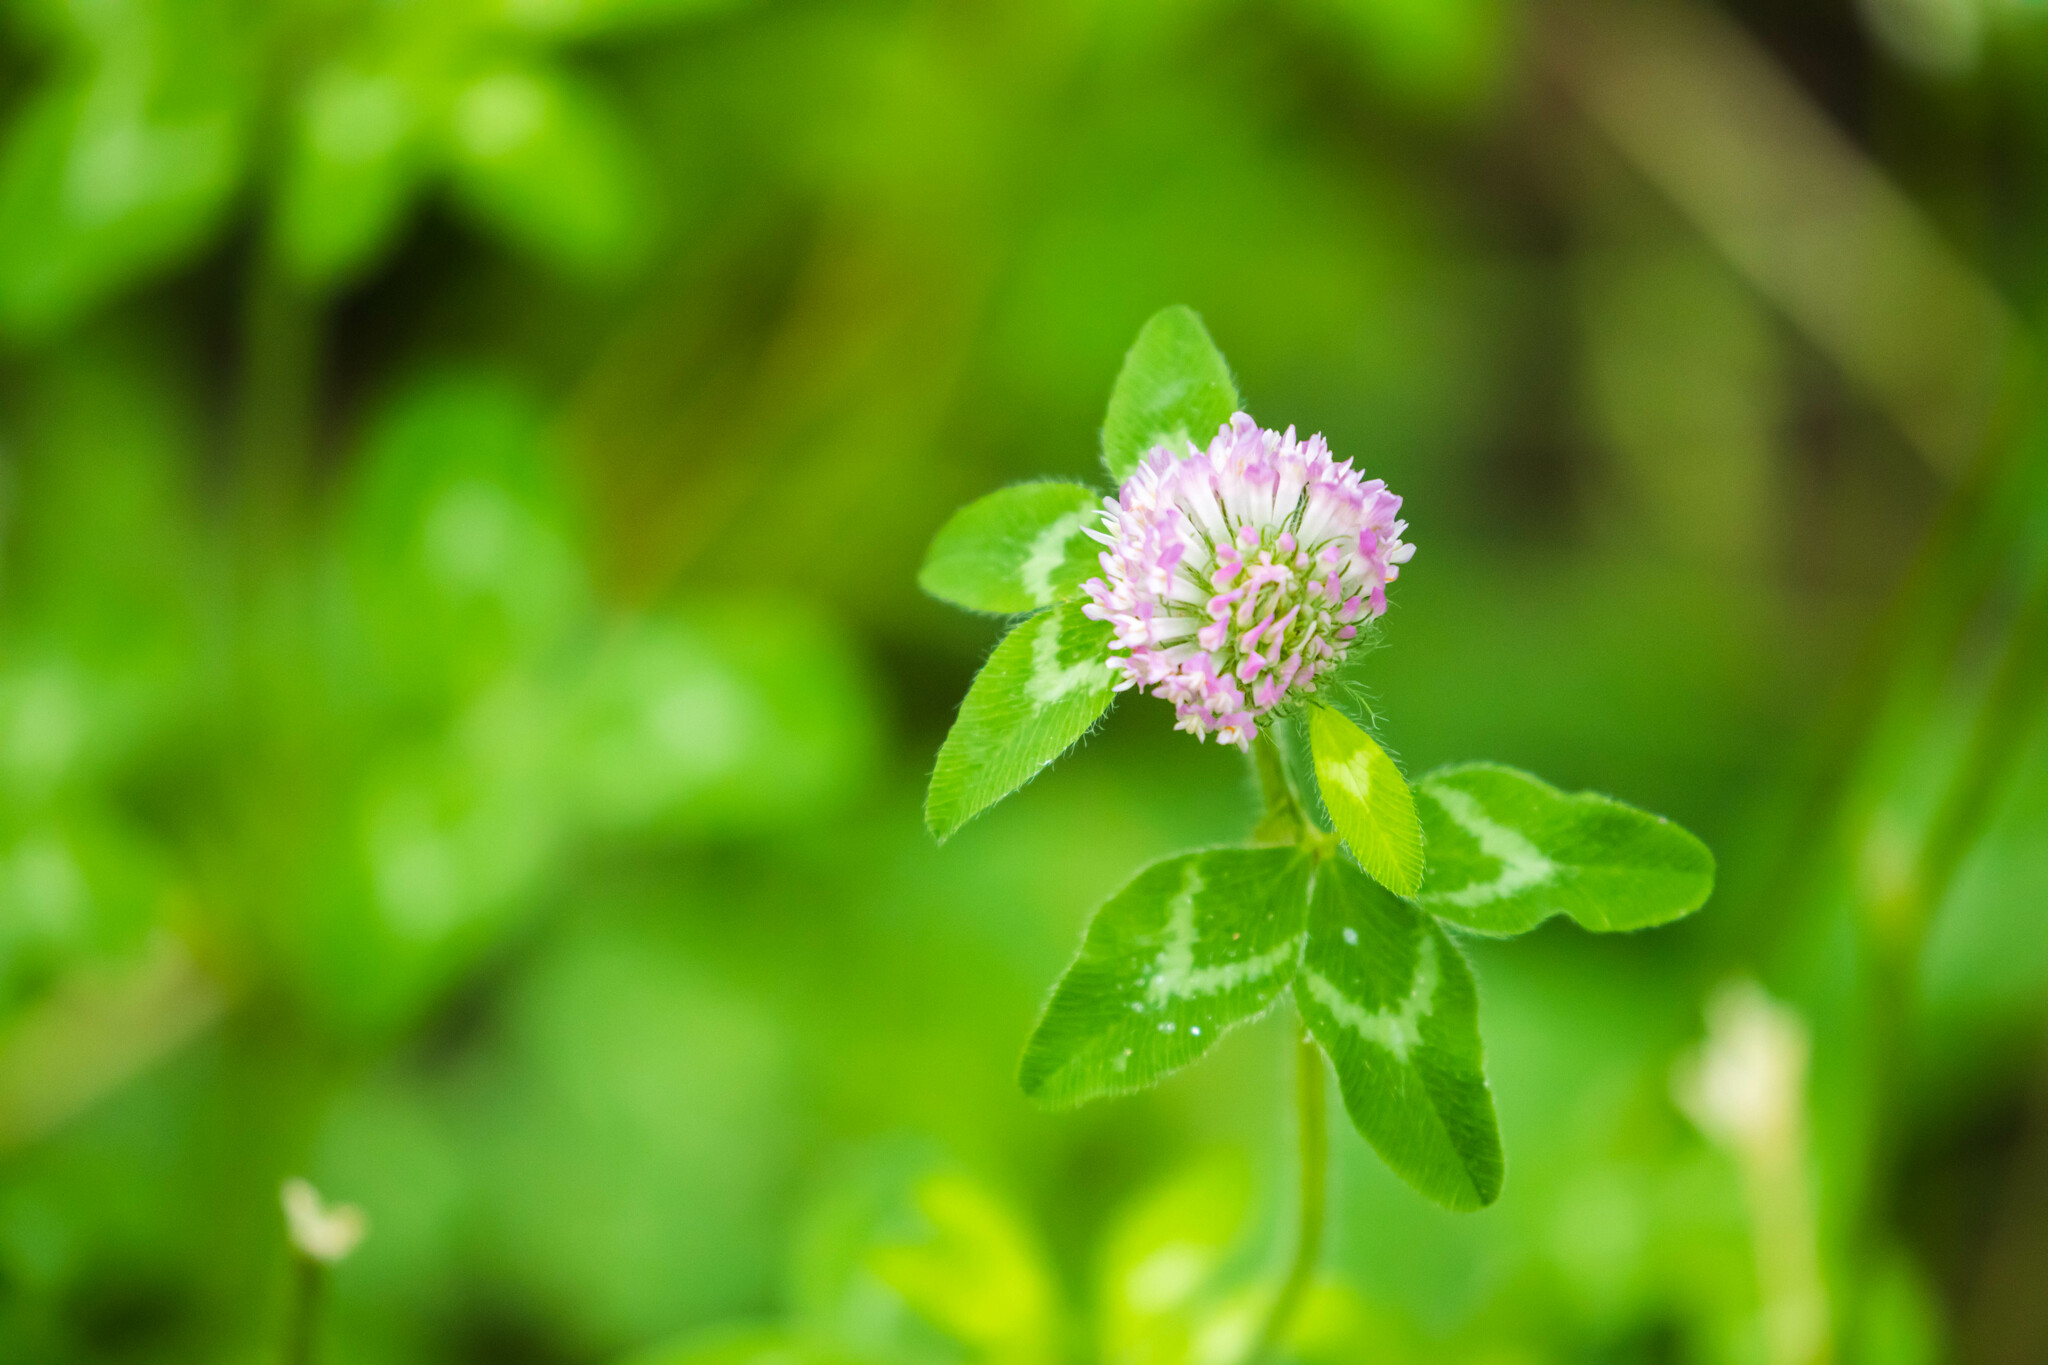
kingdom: Plantae
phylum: Tracheophyta
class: Magnoliopsida
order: Fabales
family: Fabaceae
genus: Trifolium
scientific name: Trifolium pratense
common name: Red clover
